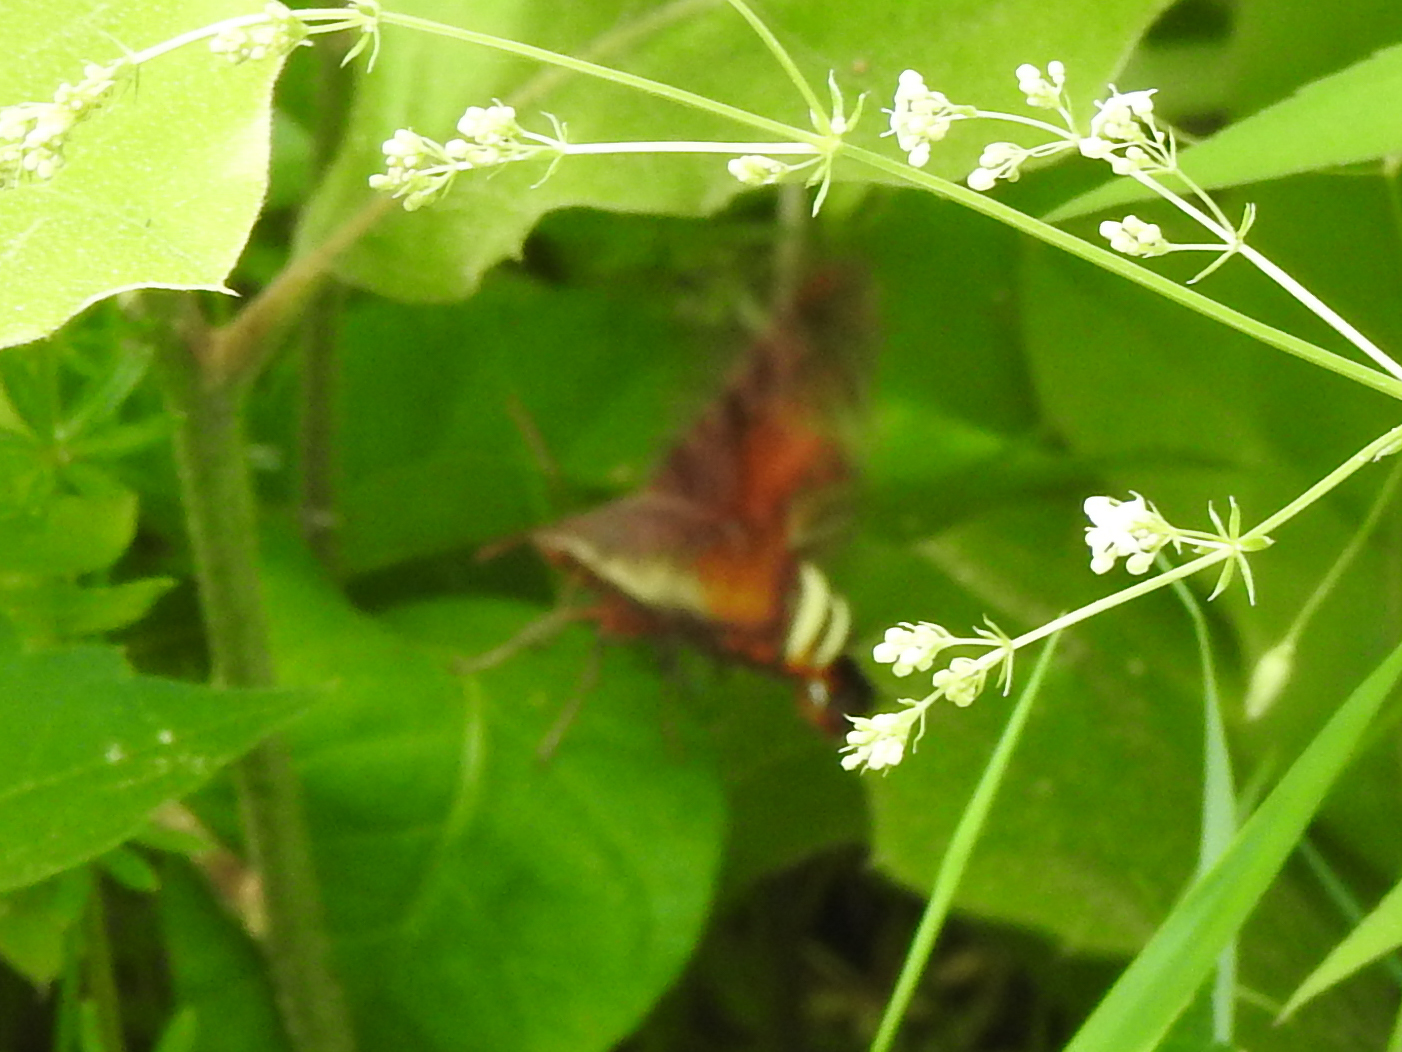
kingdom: Animalia
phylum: Arthropoda
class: Insecta
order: Lepidoptera
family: Sphingidae
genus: Amphion
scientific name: Amphion floridensis
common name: Nessus sphinx
